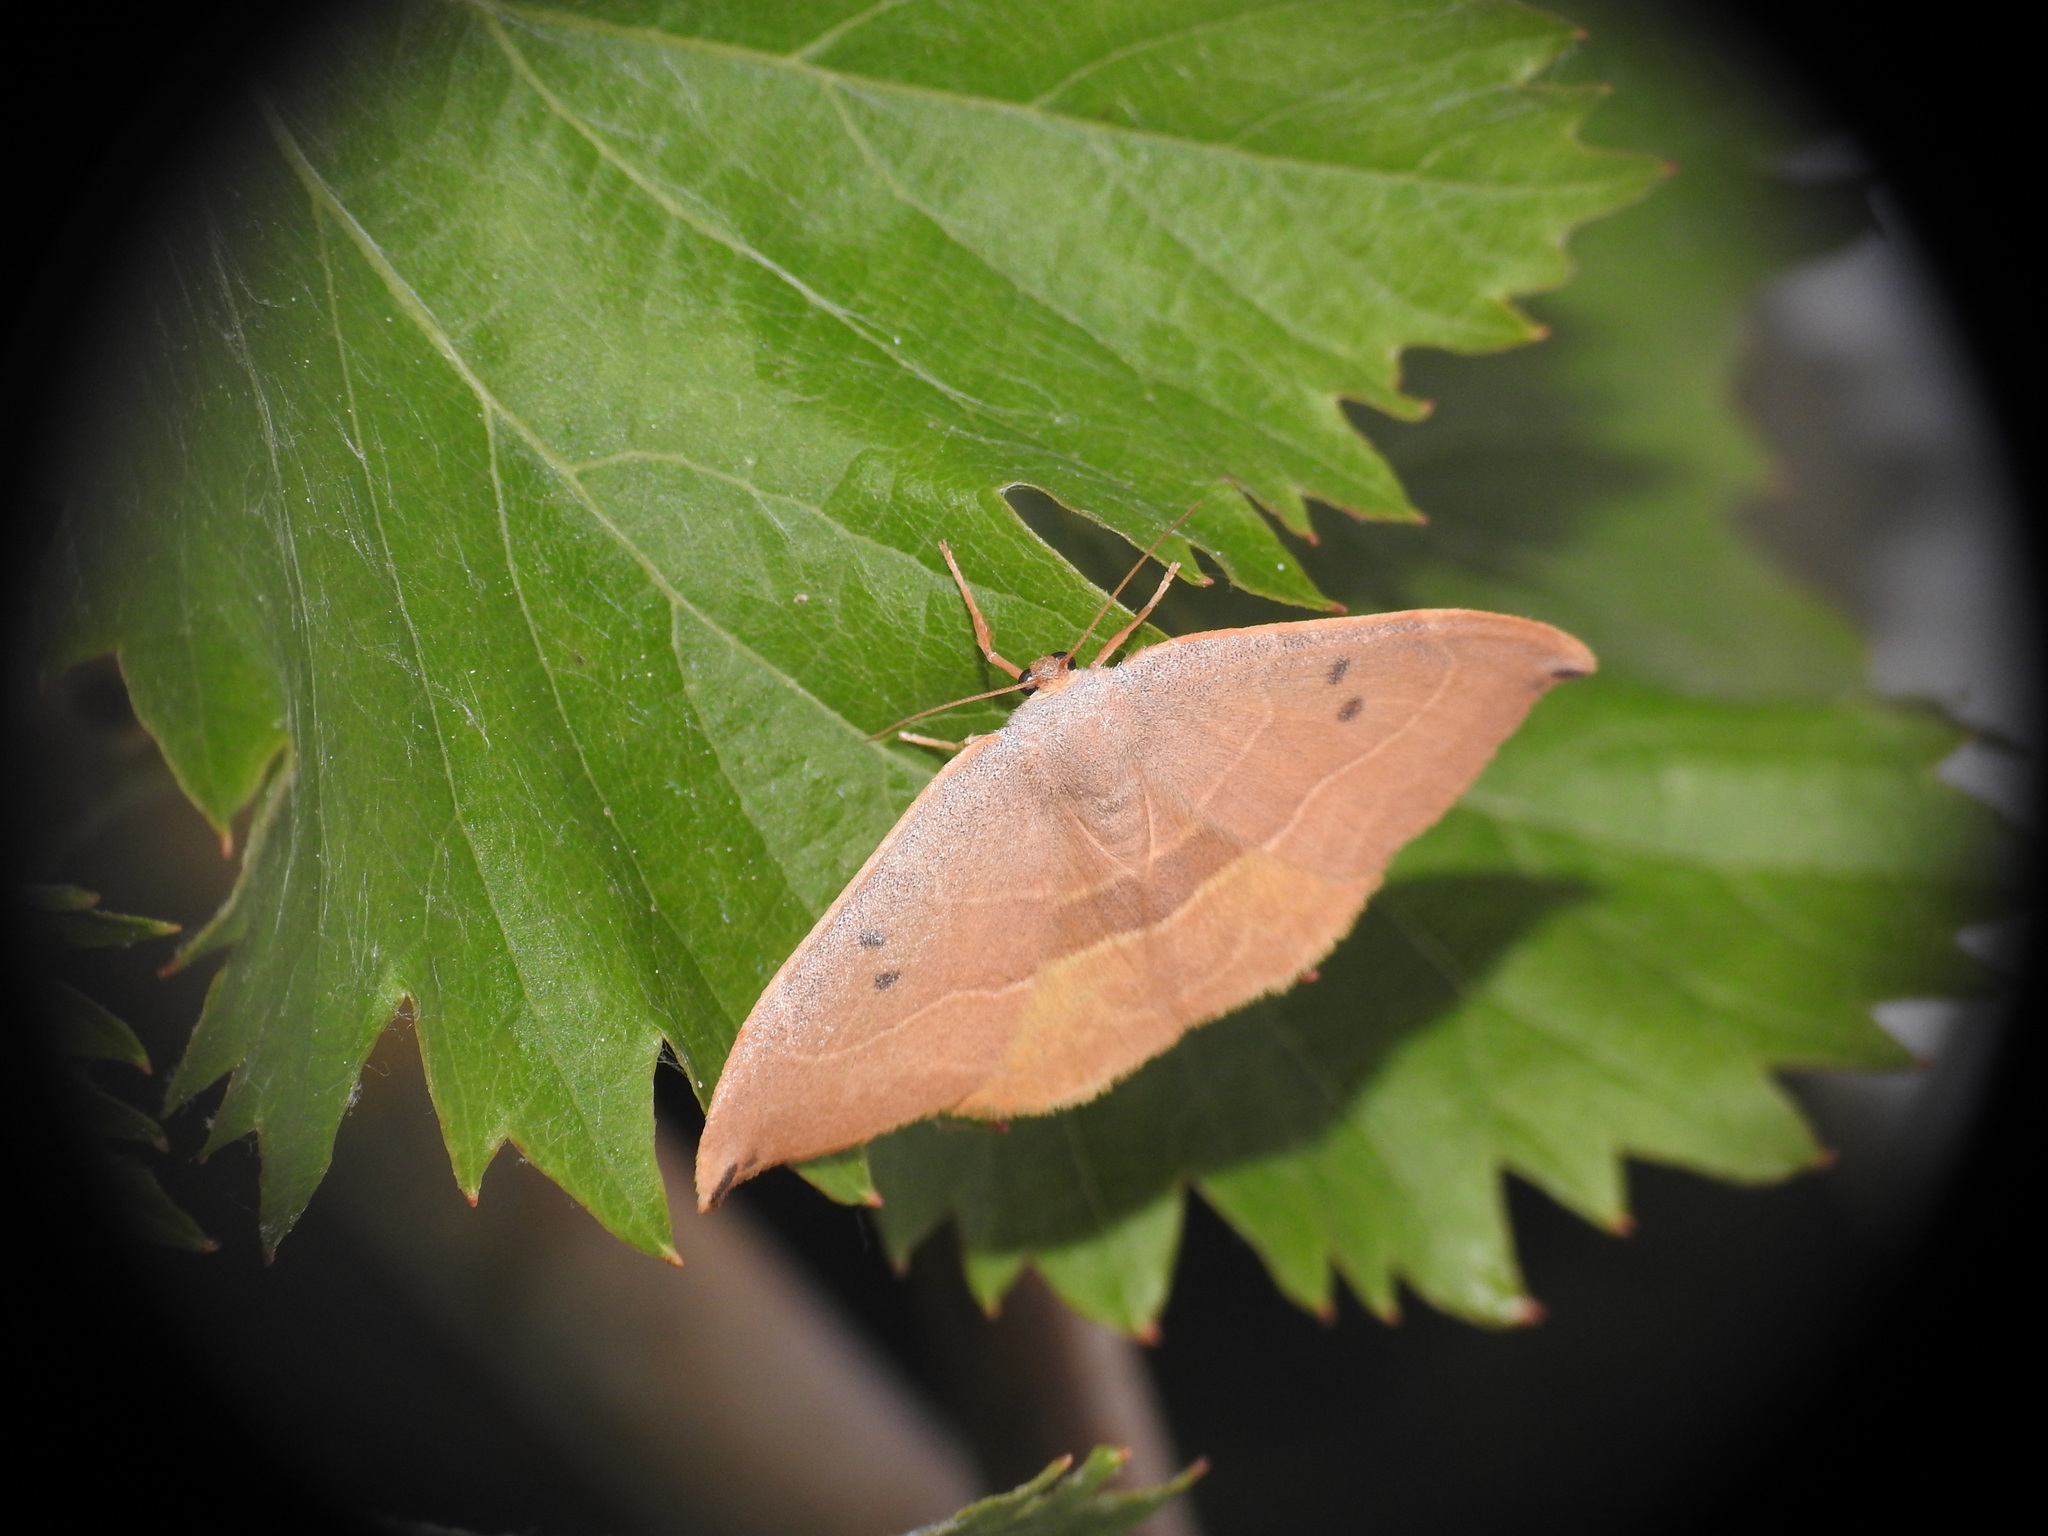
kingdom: Animalia
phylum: Arthropoda
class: Insecta
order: Lepidoptera
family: Drepanidae
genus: Watsonalla
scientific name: Watsonalla uncinula
